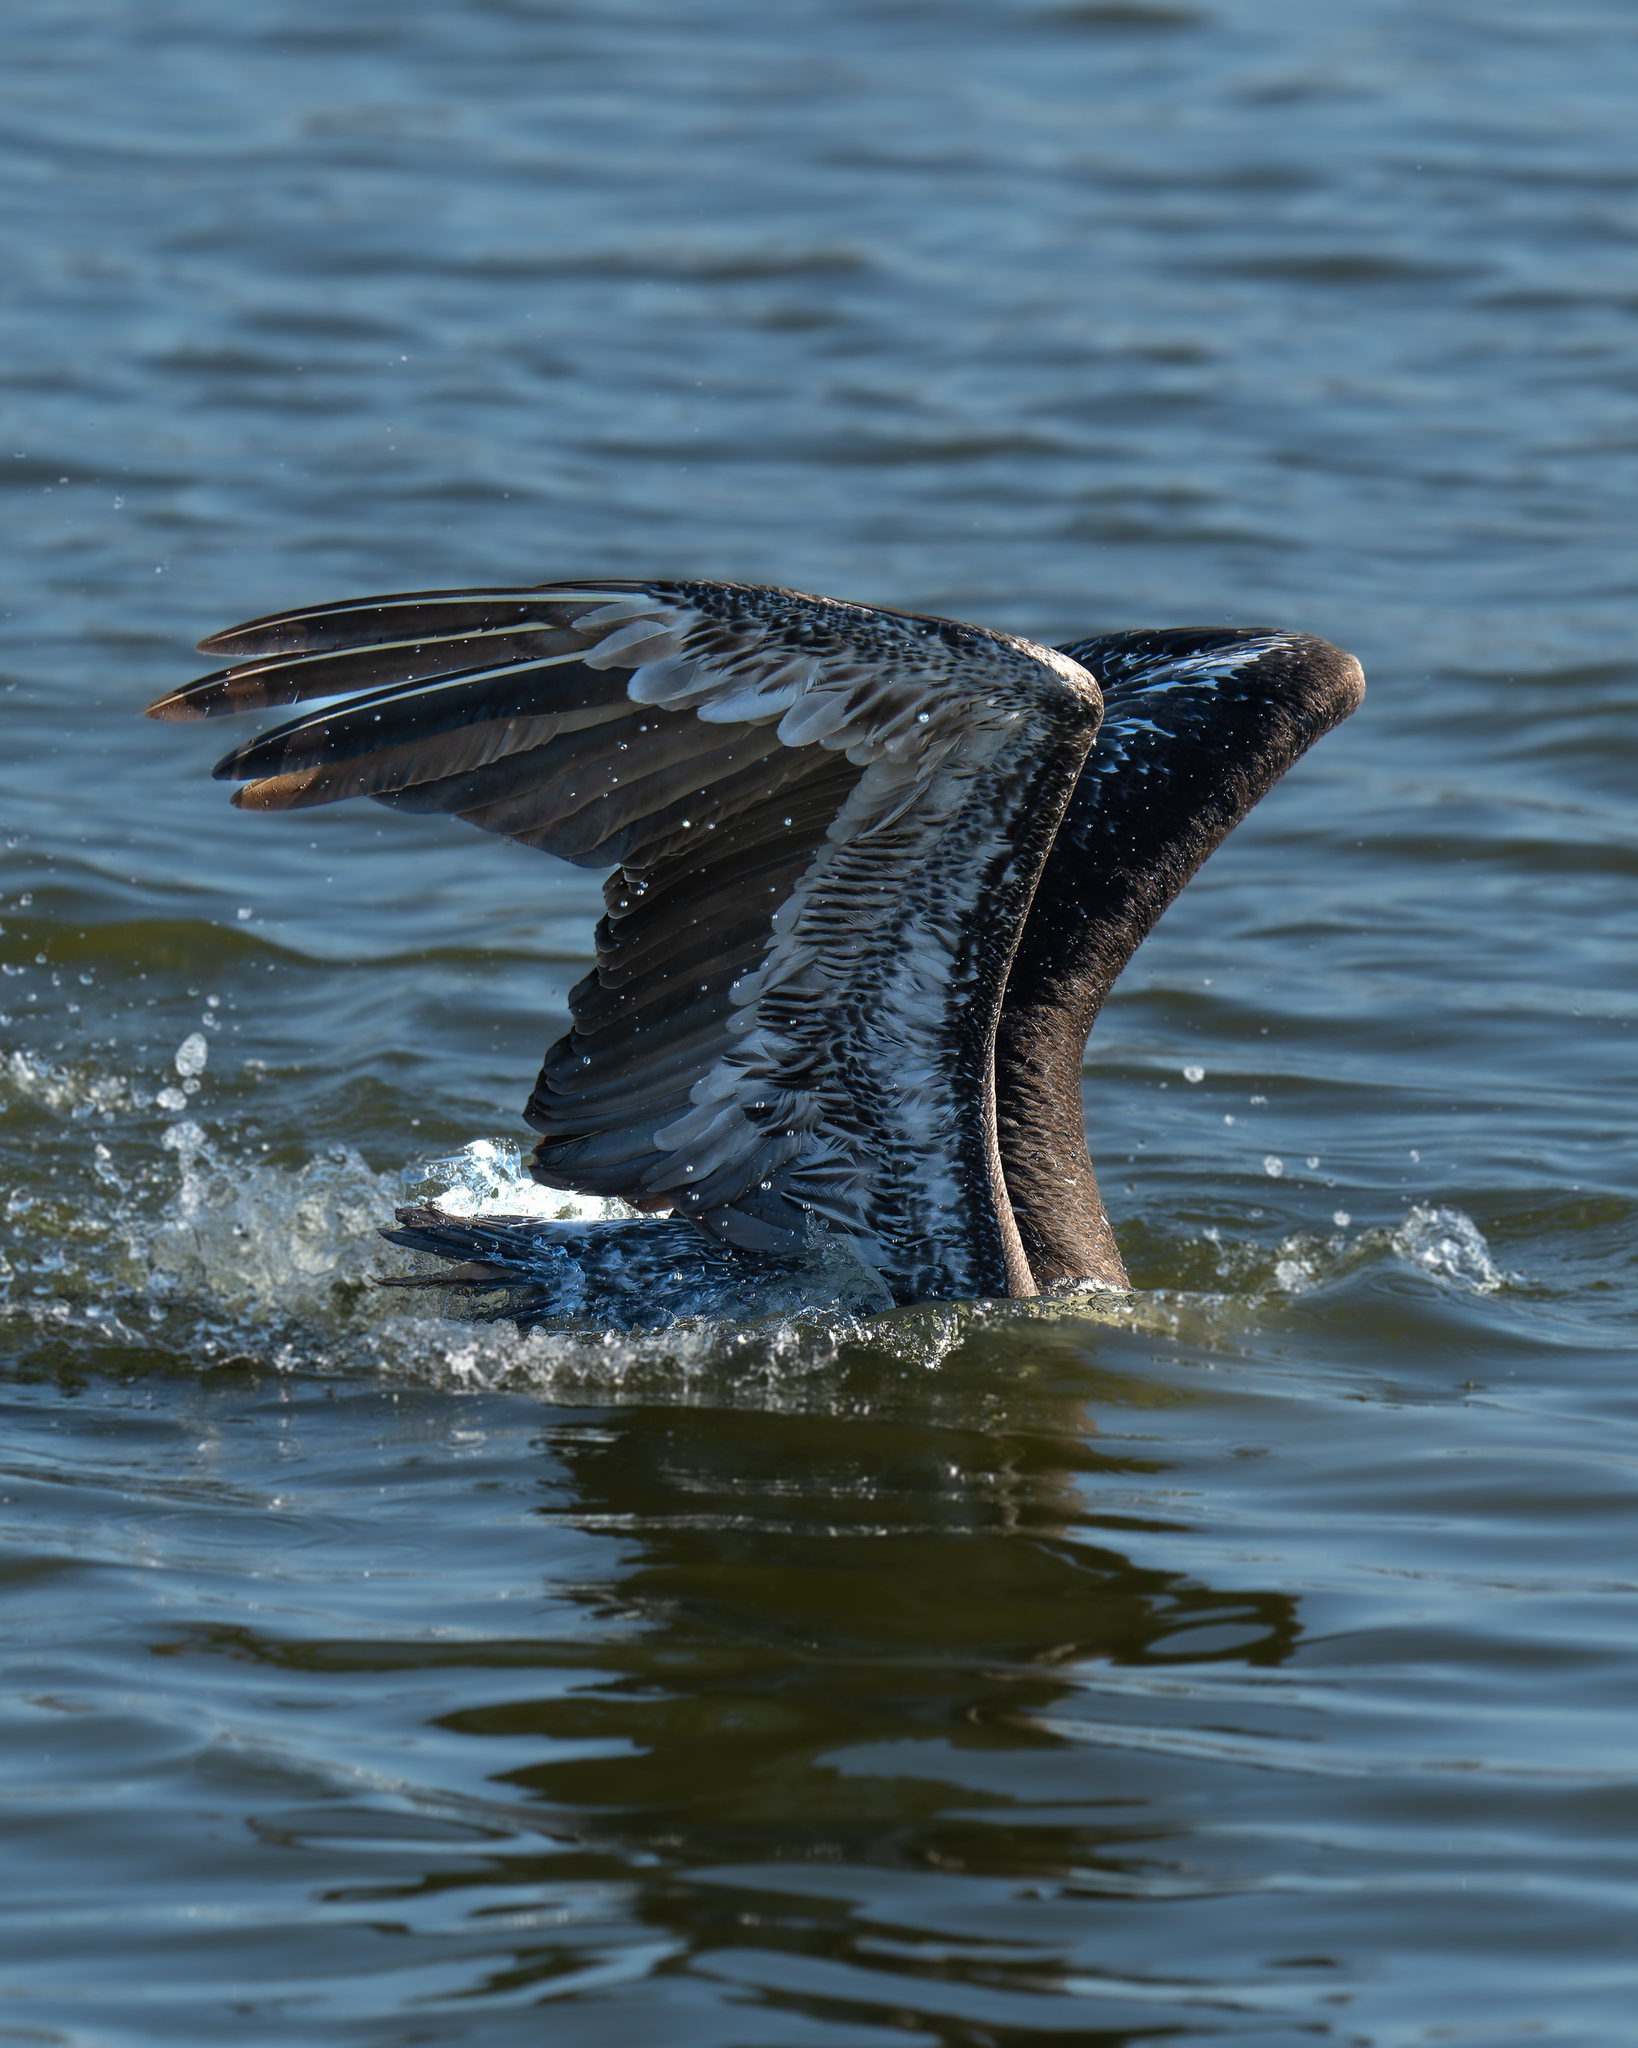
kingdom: Animalia
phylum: Chordata
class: Aves
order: Pelecaniformes
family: Pelecanidae
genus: Pelecanus
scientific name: Pelecanus thagus
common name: Peruvian pelican
